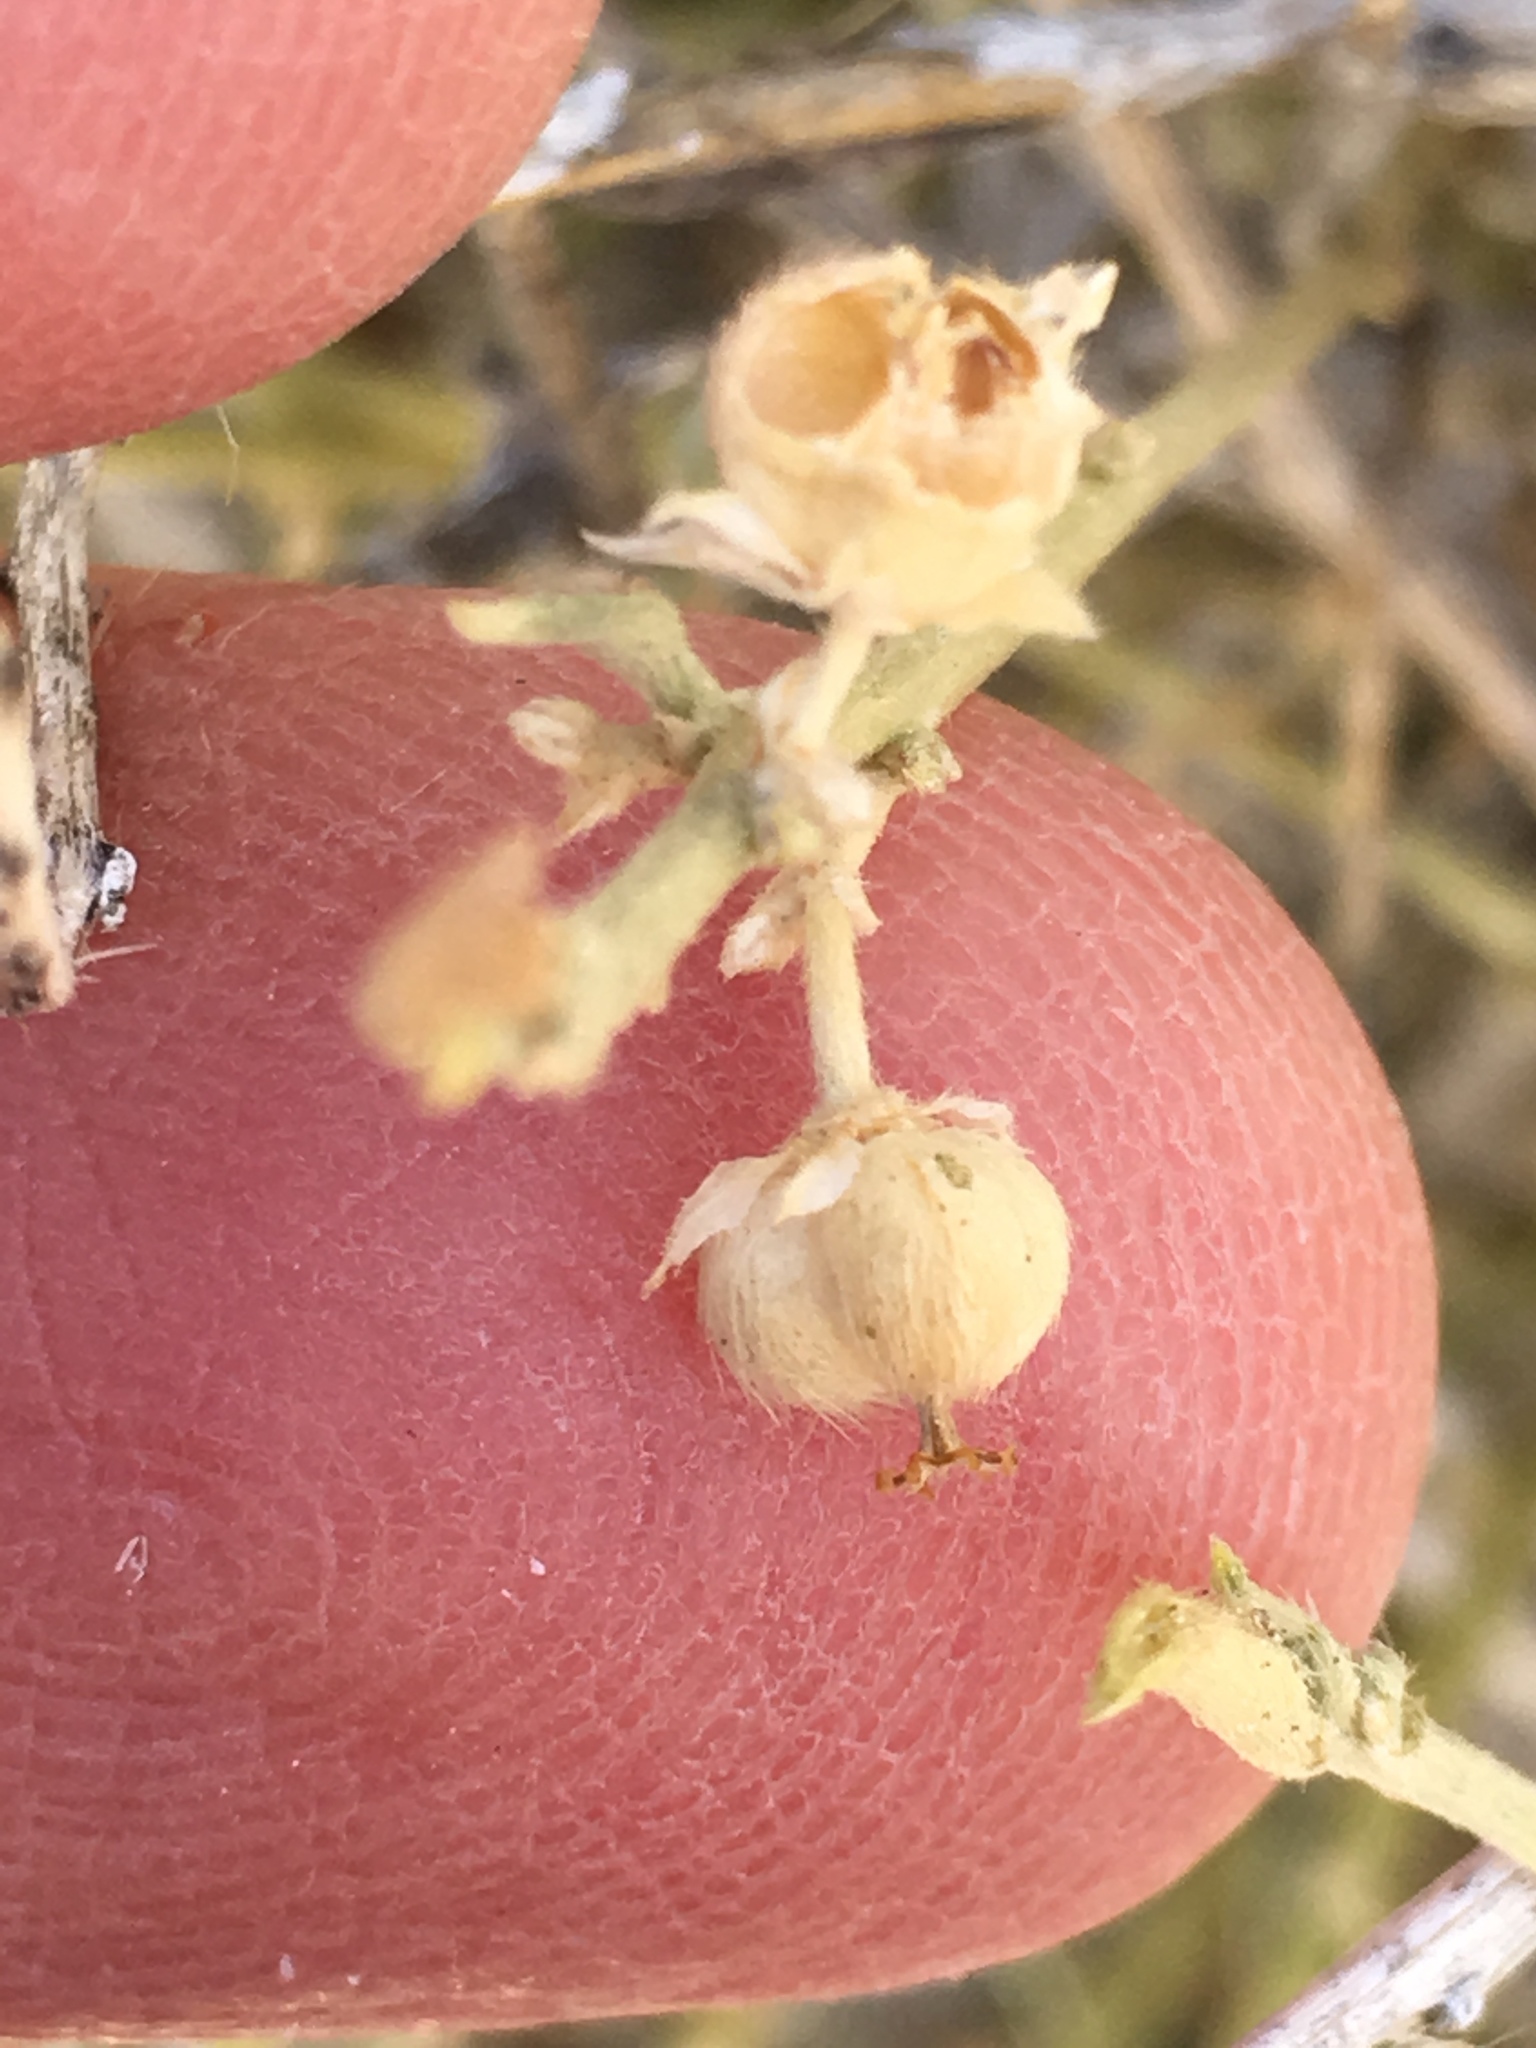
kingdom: Plantae
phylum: Tracheophyta
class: Magnoliopsida
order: Malpighiales
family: Euphorbiaceae
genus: Ditaxis
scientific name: Ditaxis lanceolata
